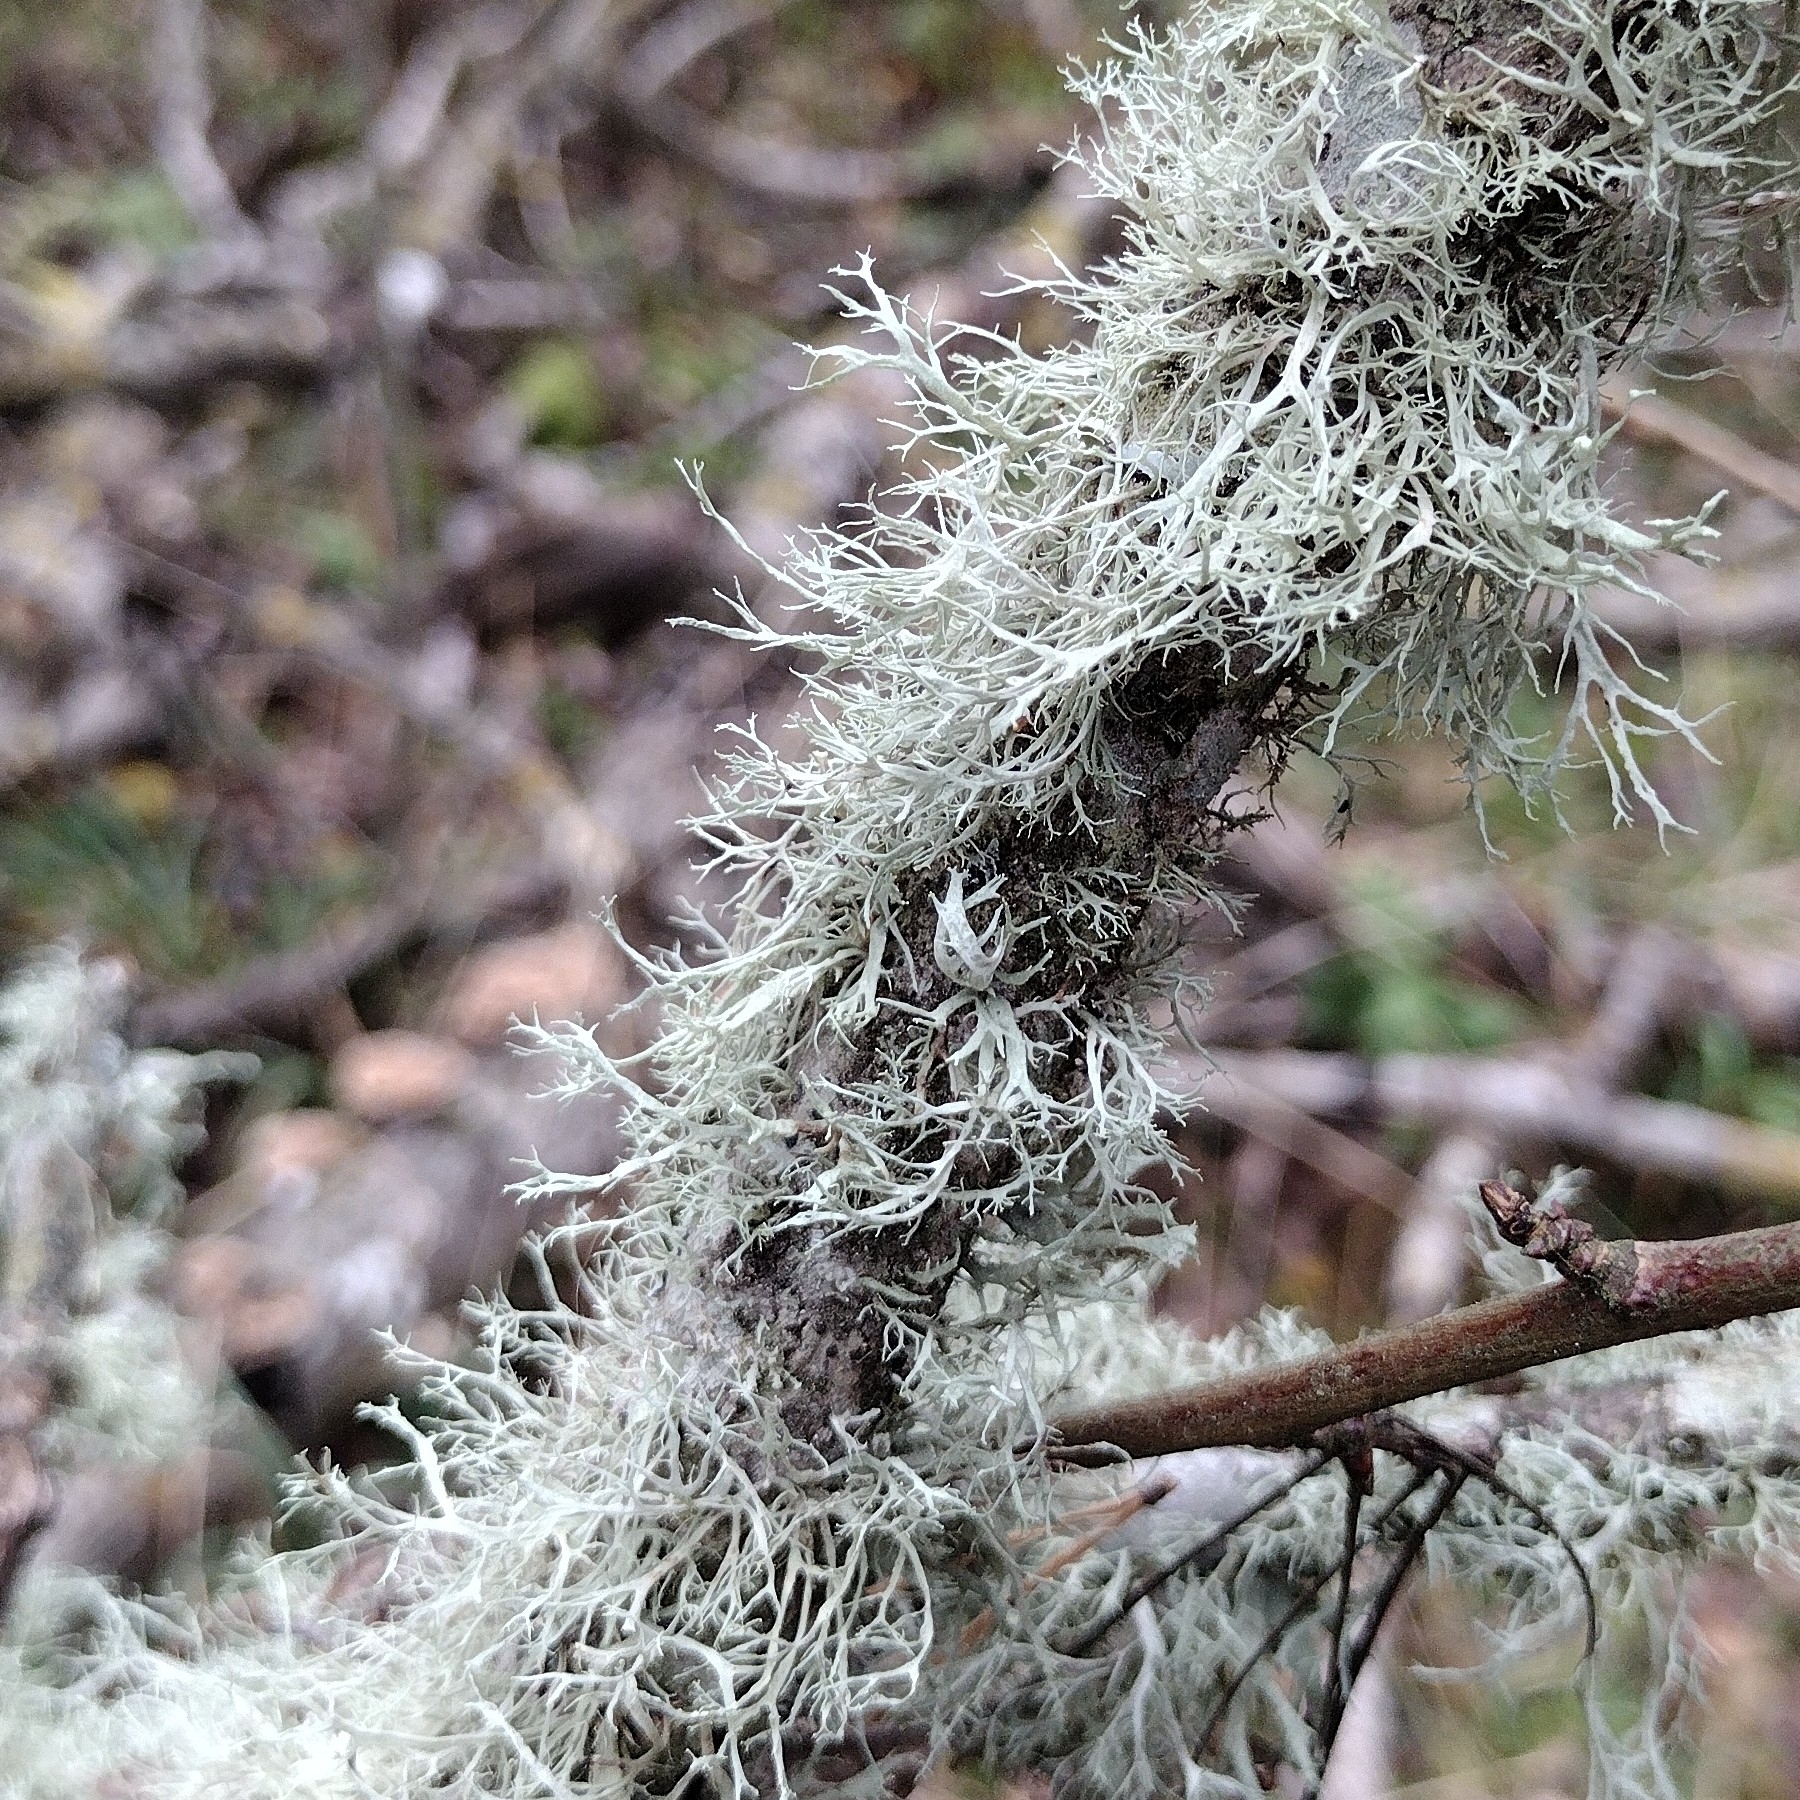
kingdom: Fungi
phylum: Ascomycota
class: Lecanoromycetes
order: Lecanorales
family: Ramalinaceae
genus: Ramalina
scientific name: Ramalina farinacea
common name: Farinose cartilage lichen
